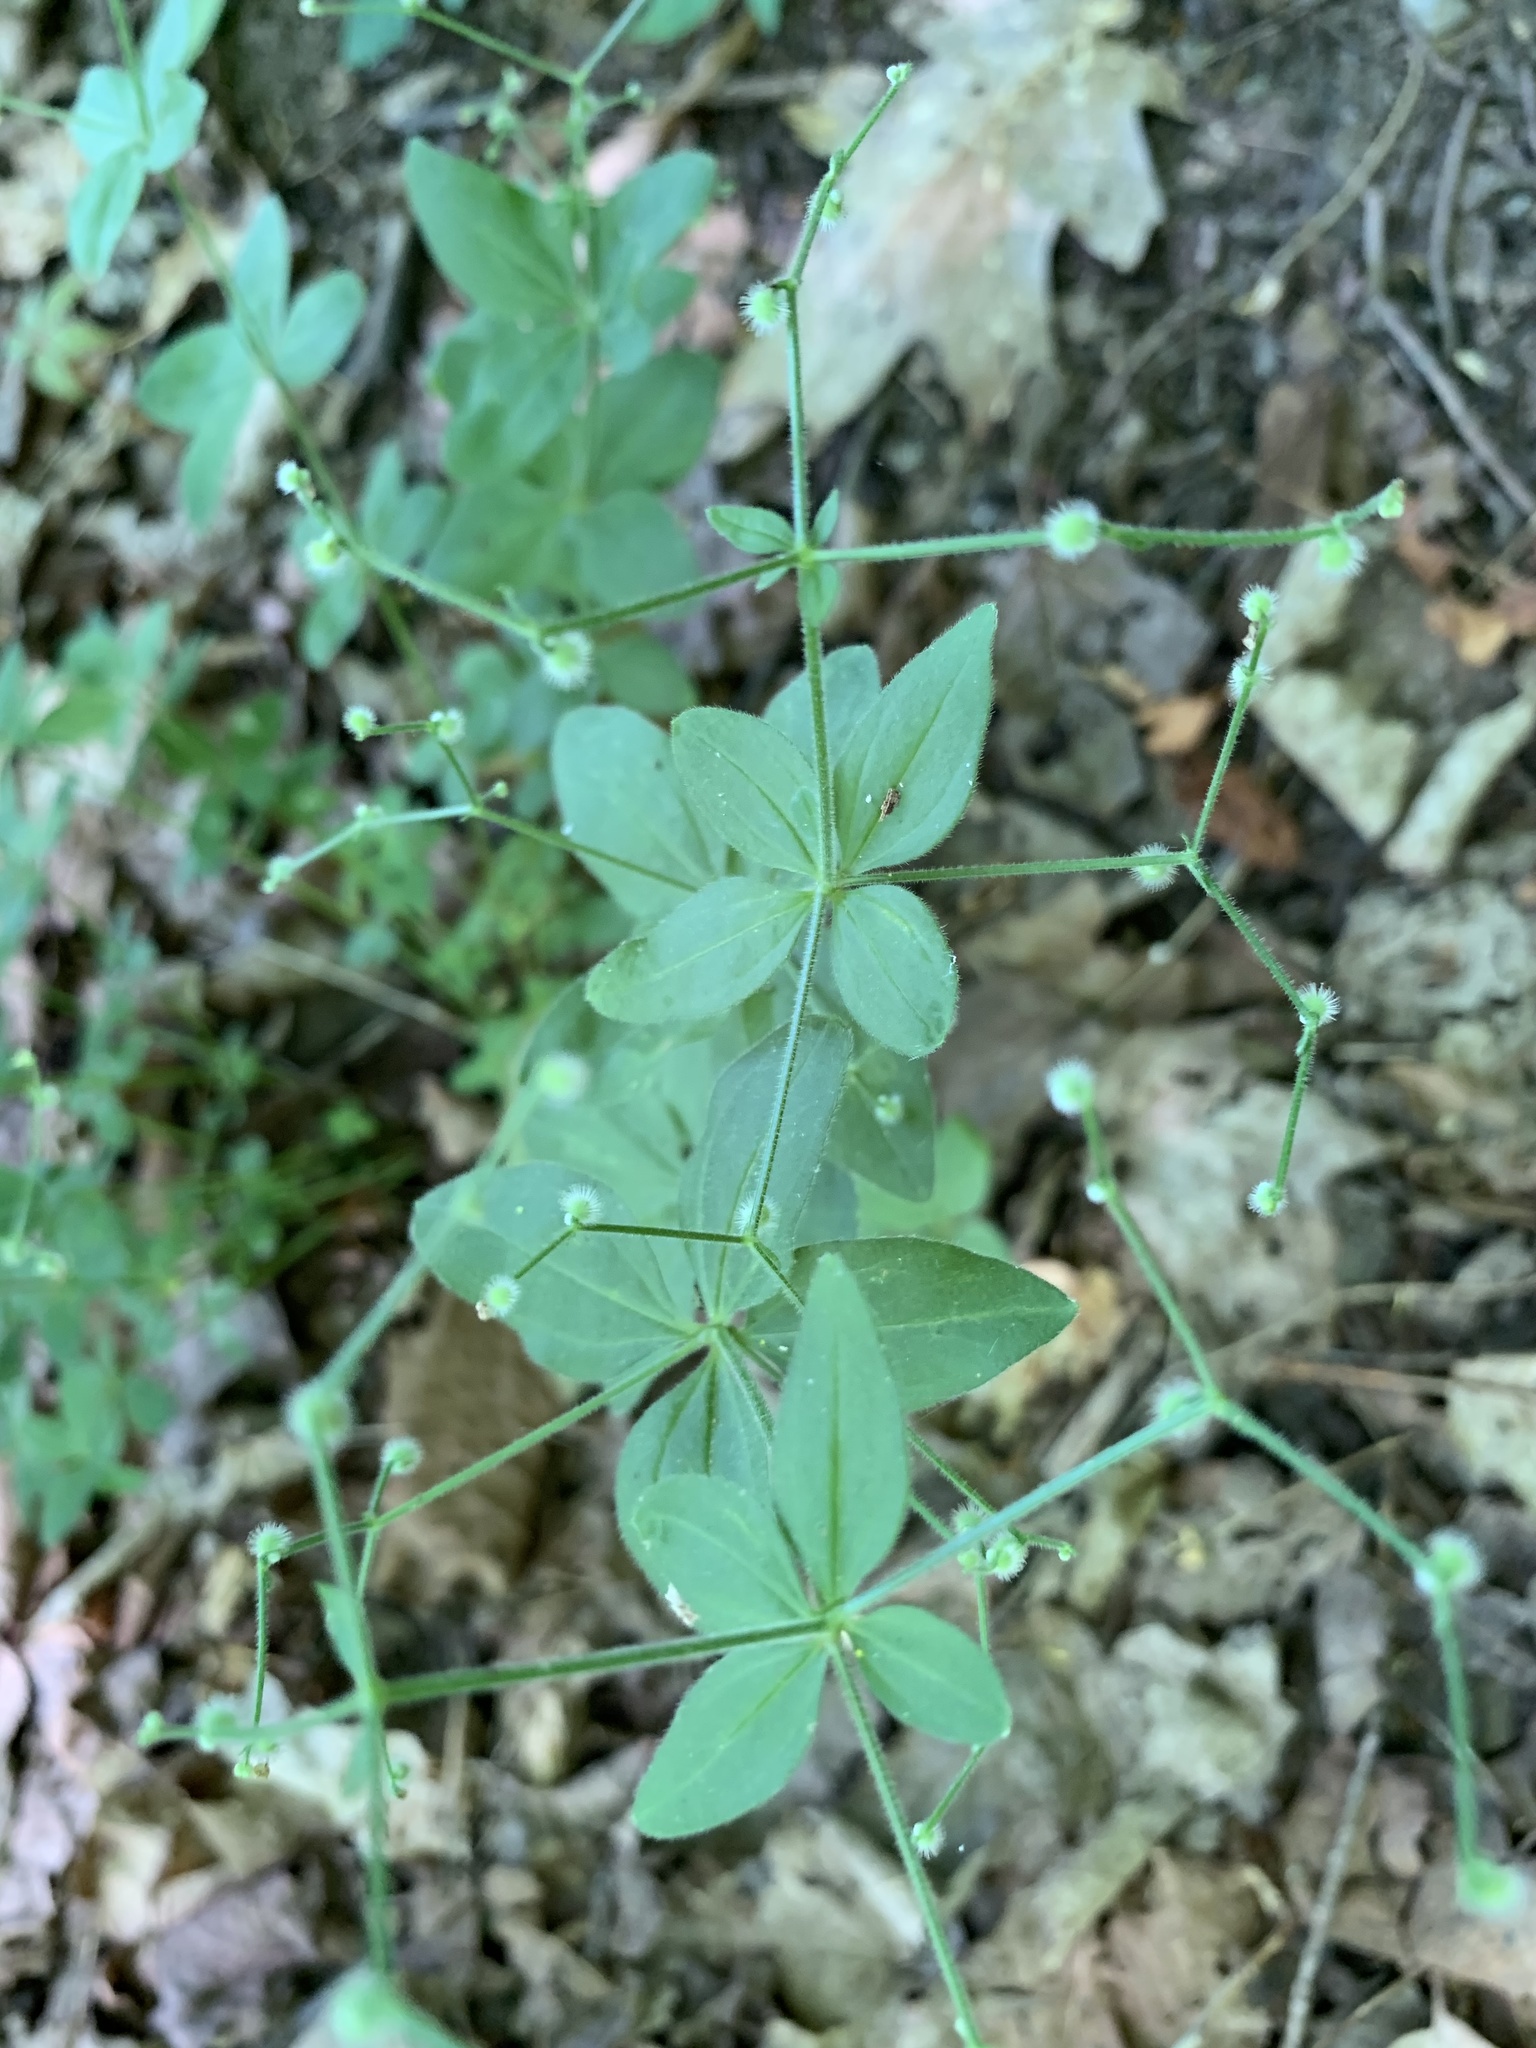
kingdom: Plantae
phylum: Tracheophyta
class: Magnoliopsida
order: Gentianales
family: Rubiaceae
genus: Galium
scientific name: Galium circaezans
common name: Forest bedstraw
